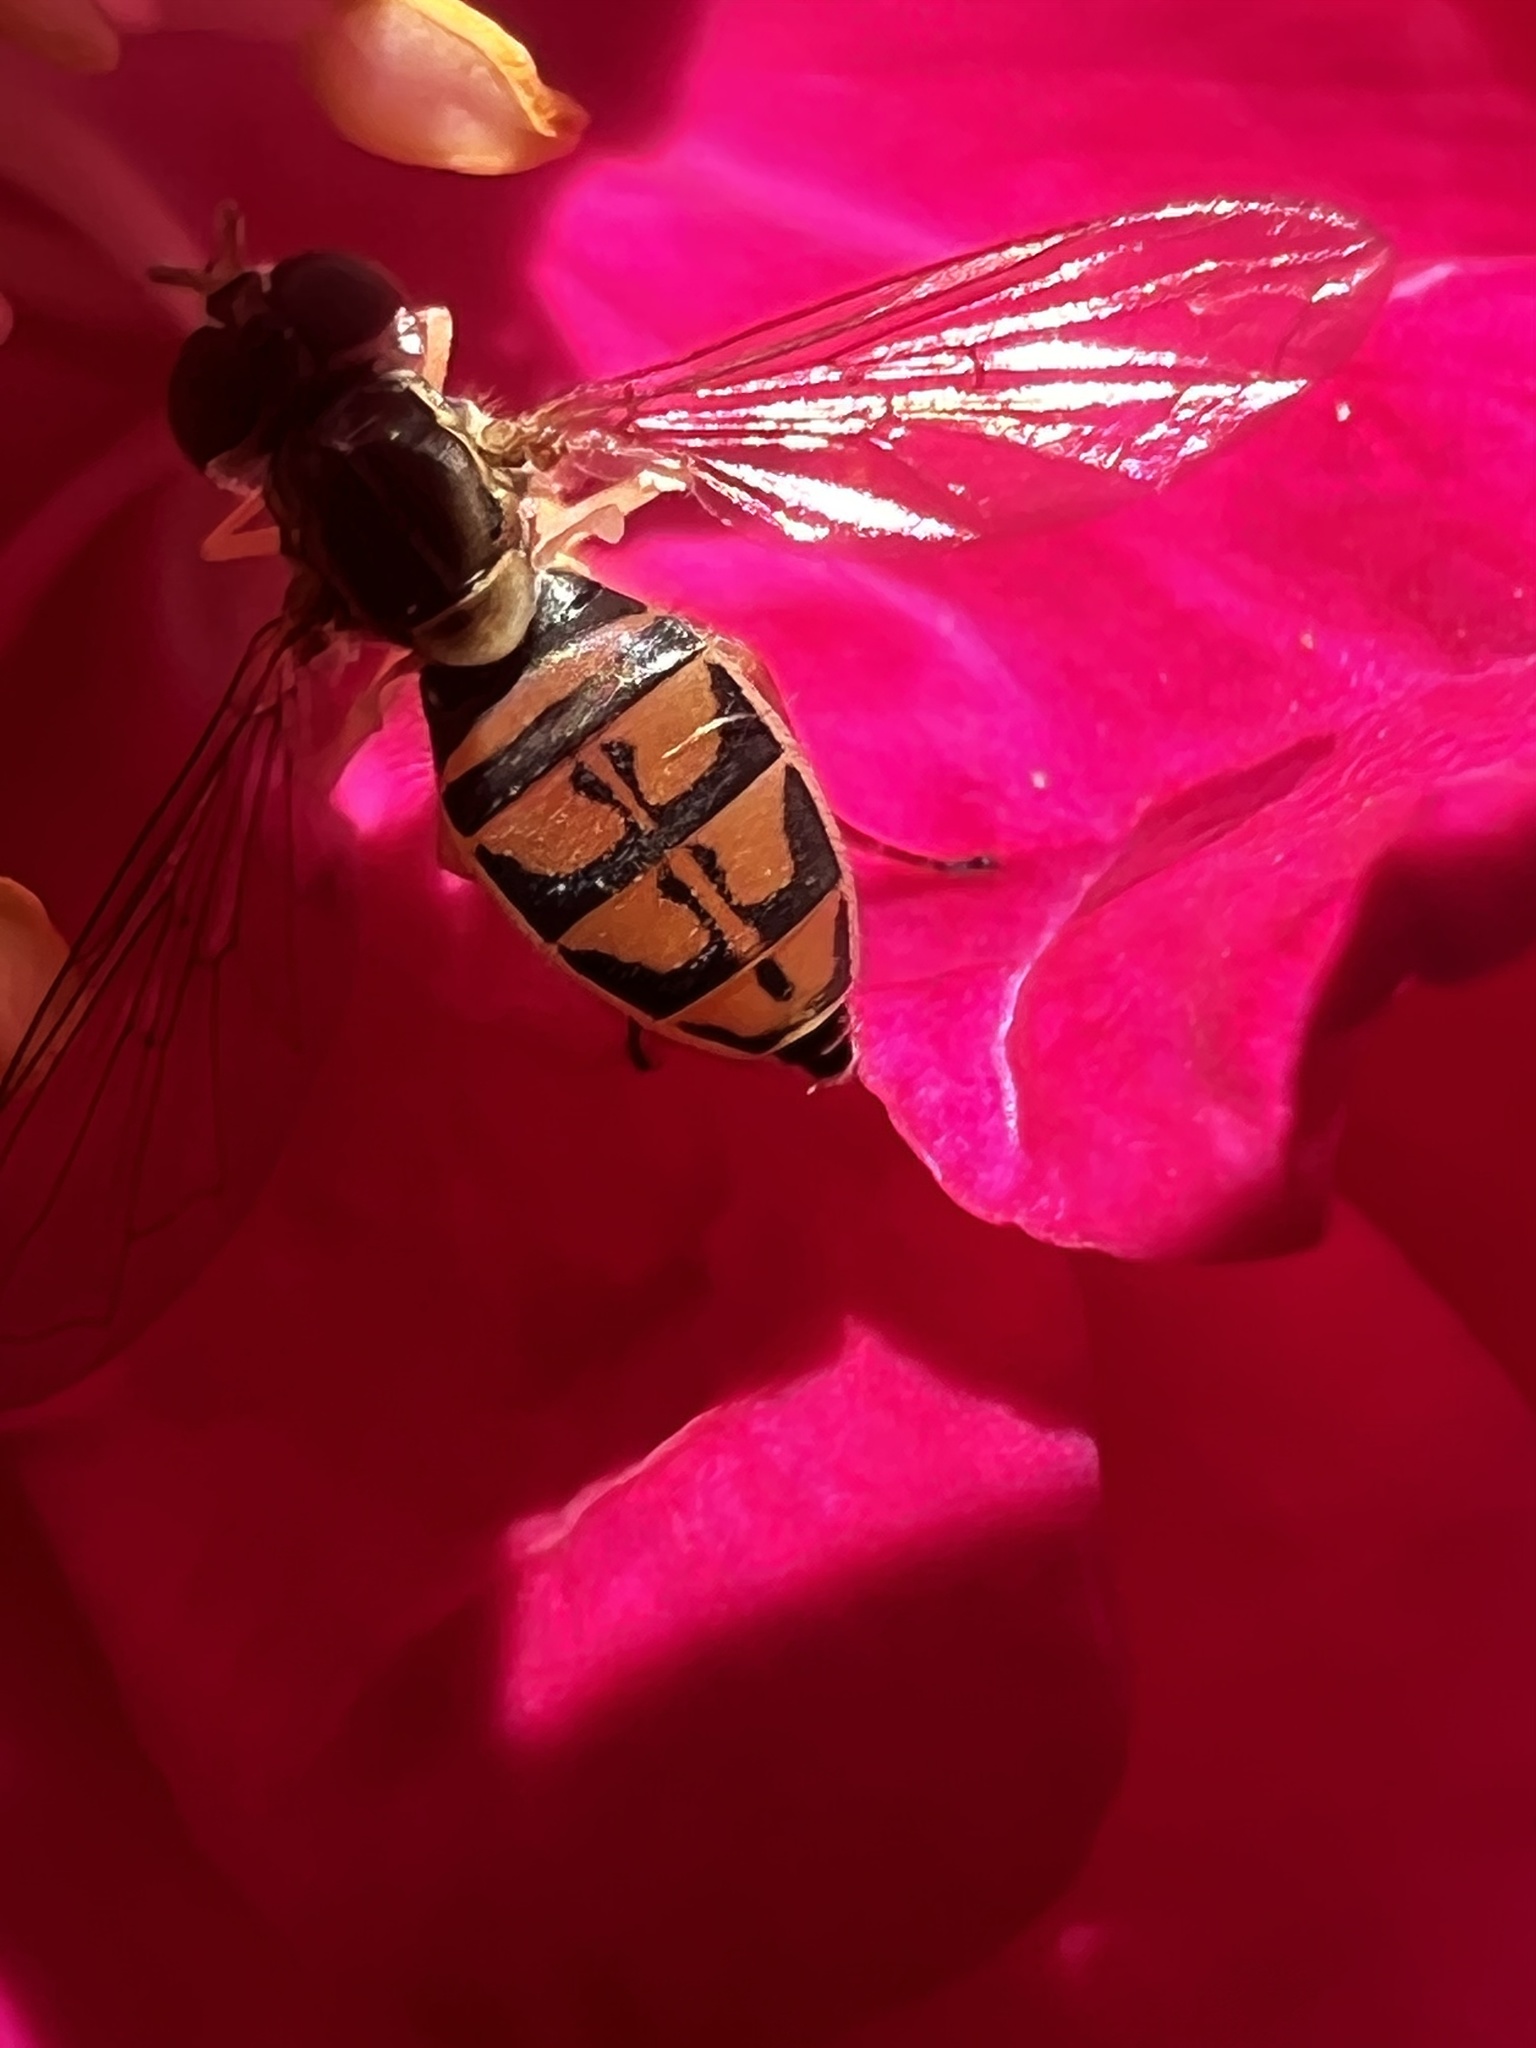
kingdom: Animalia
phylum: Arthropoda
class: Insecta
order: Diptera
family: Syrphidae
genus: Toxomerus
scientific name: Toxomerus marginatus
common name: Syrphid fly
